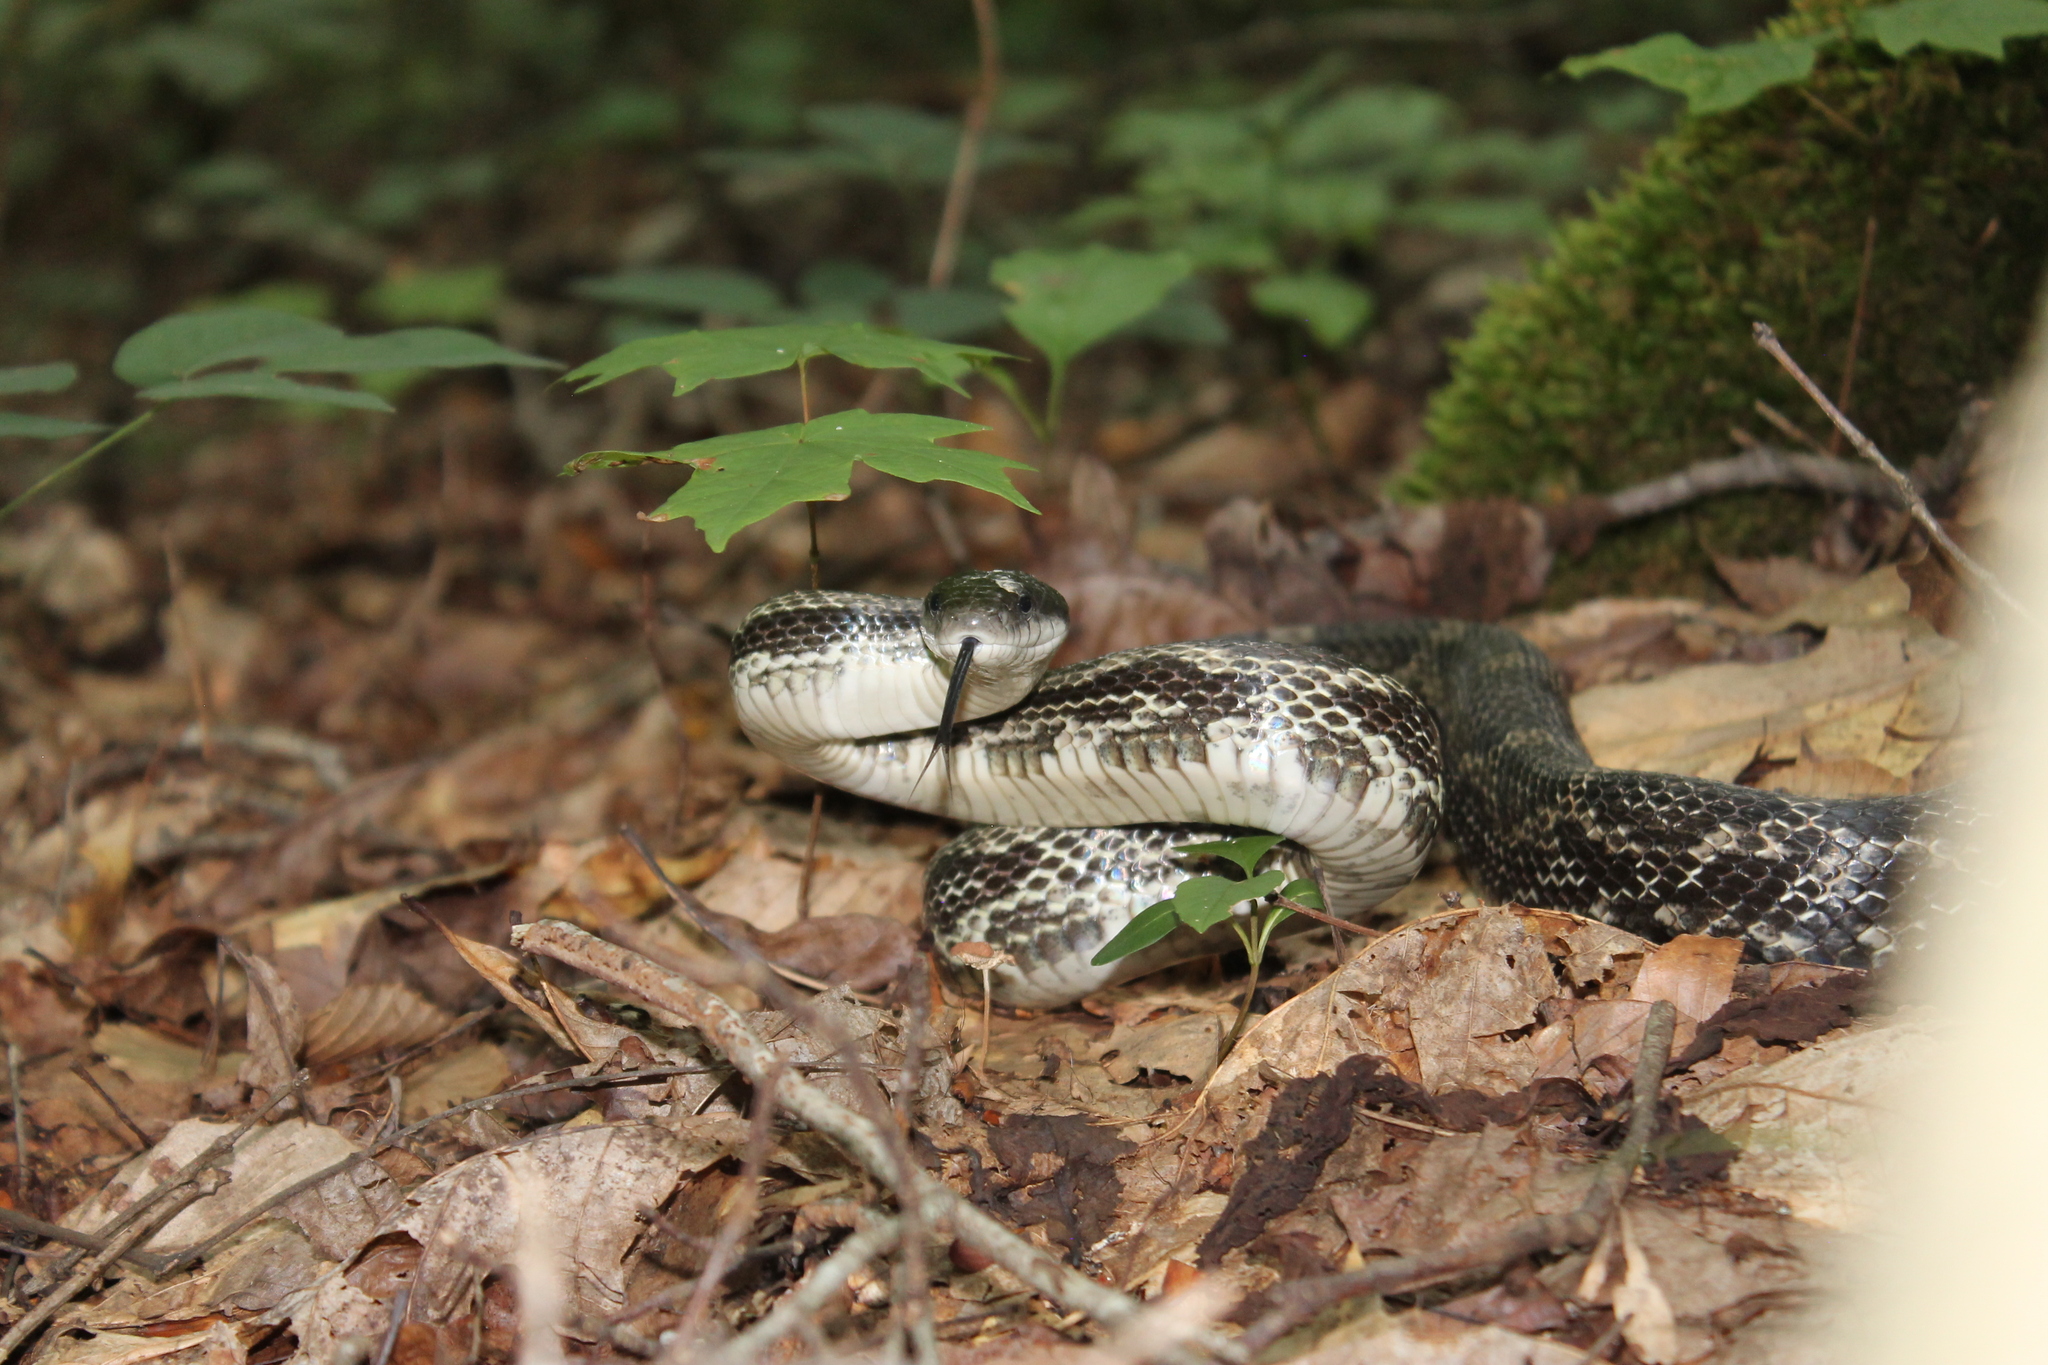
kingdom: Animalia
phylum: Chordata
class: Squamata
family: Colubridae
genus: Pantherophis
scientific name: Pantherophis spiloides
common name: Gray rat snake
